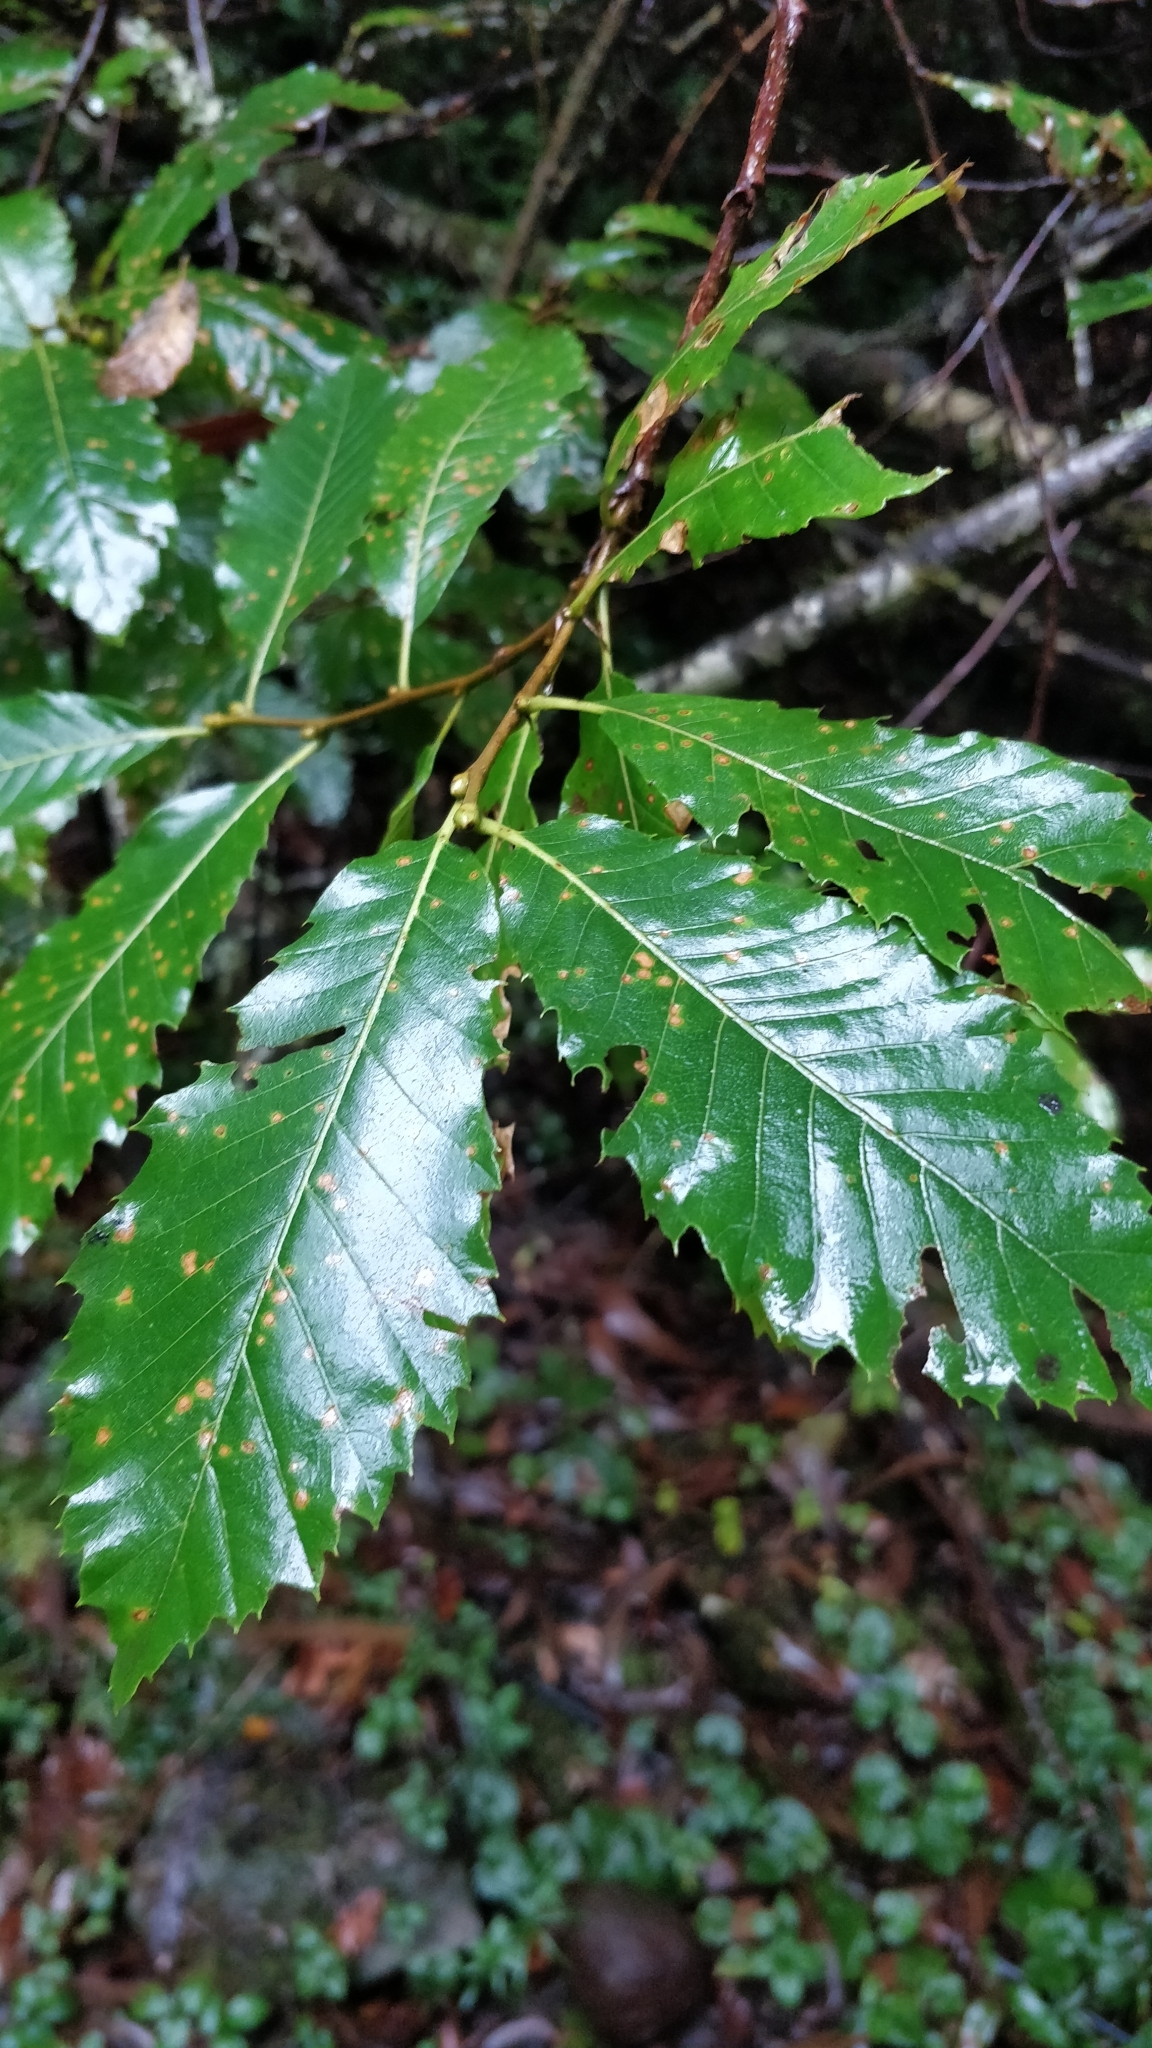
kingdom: Plantae
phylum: Tracheophyta
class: Magnoliopsida
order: Fagales
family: Fagaceae
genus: Castanea
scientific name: Castanea sativa
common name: Sweet chestnut
